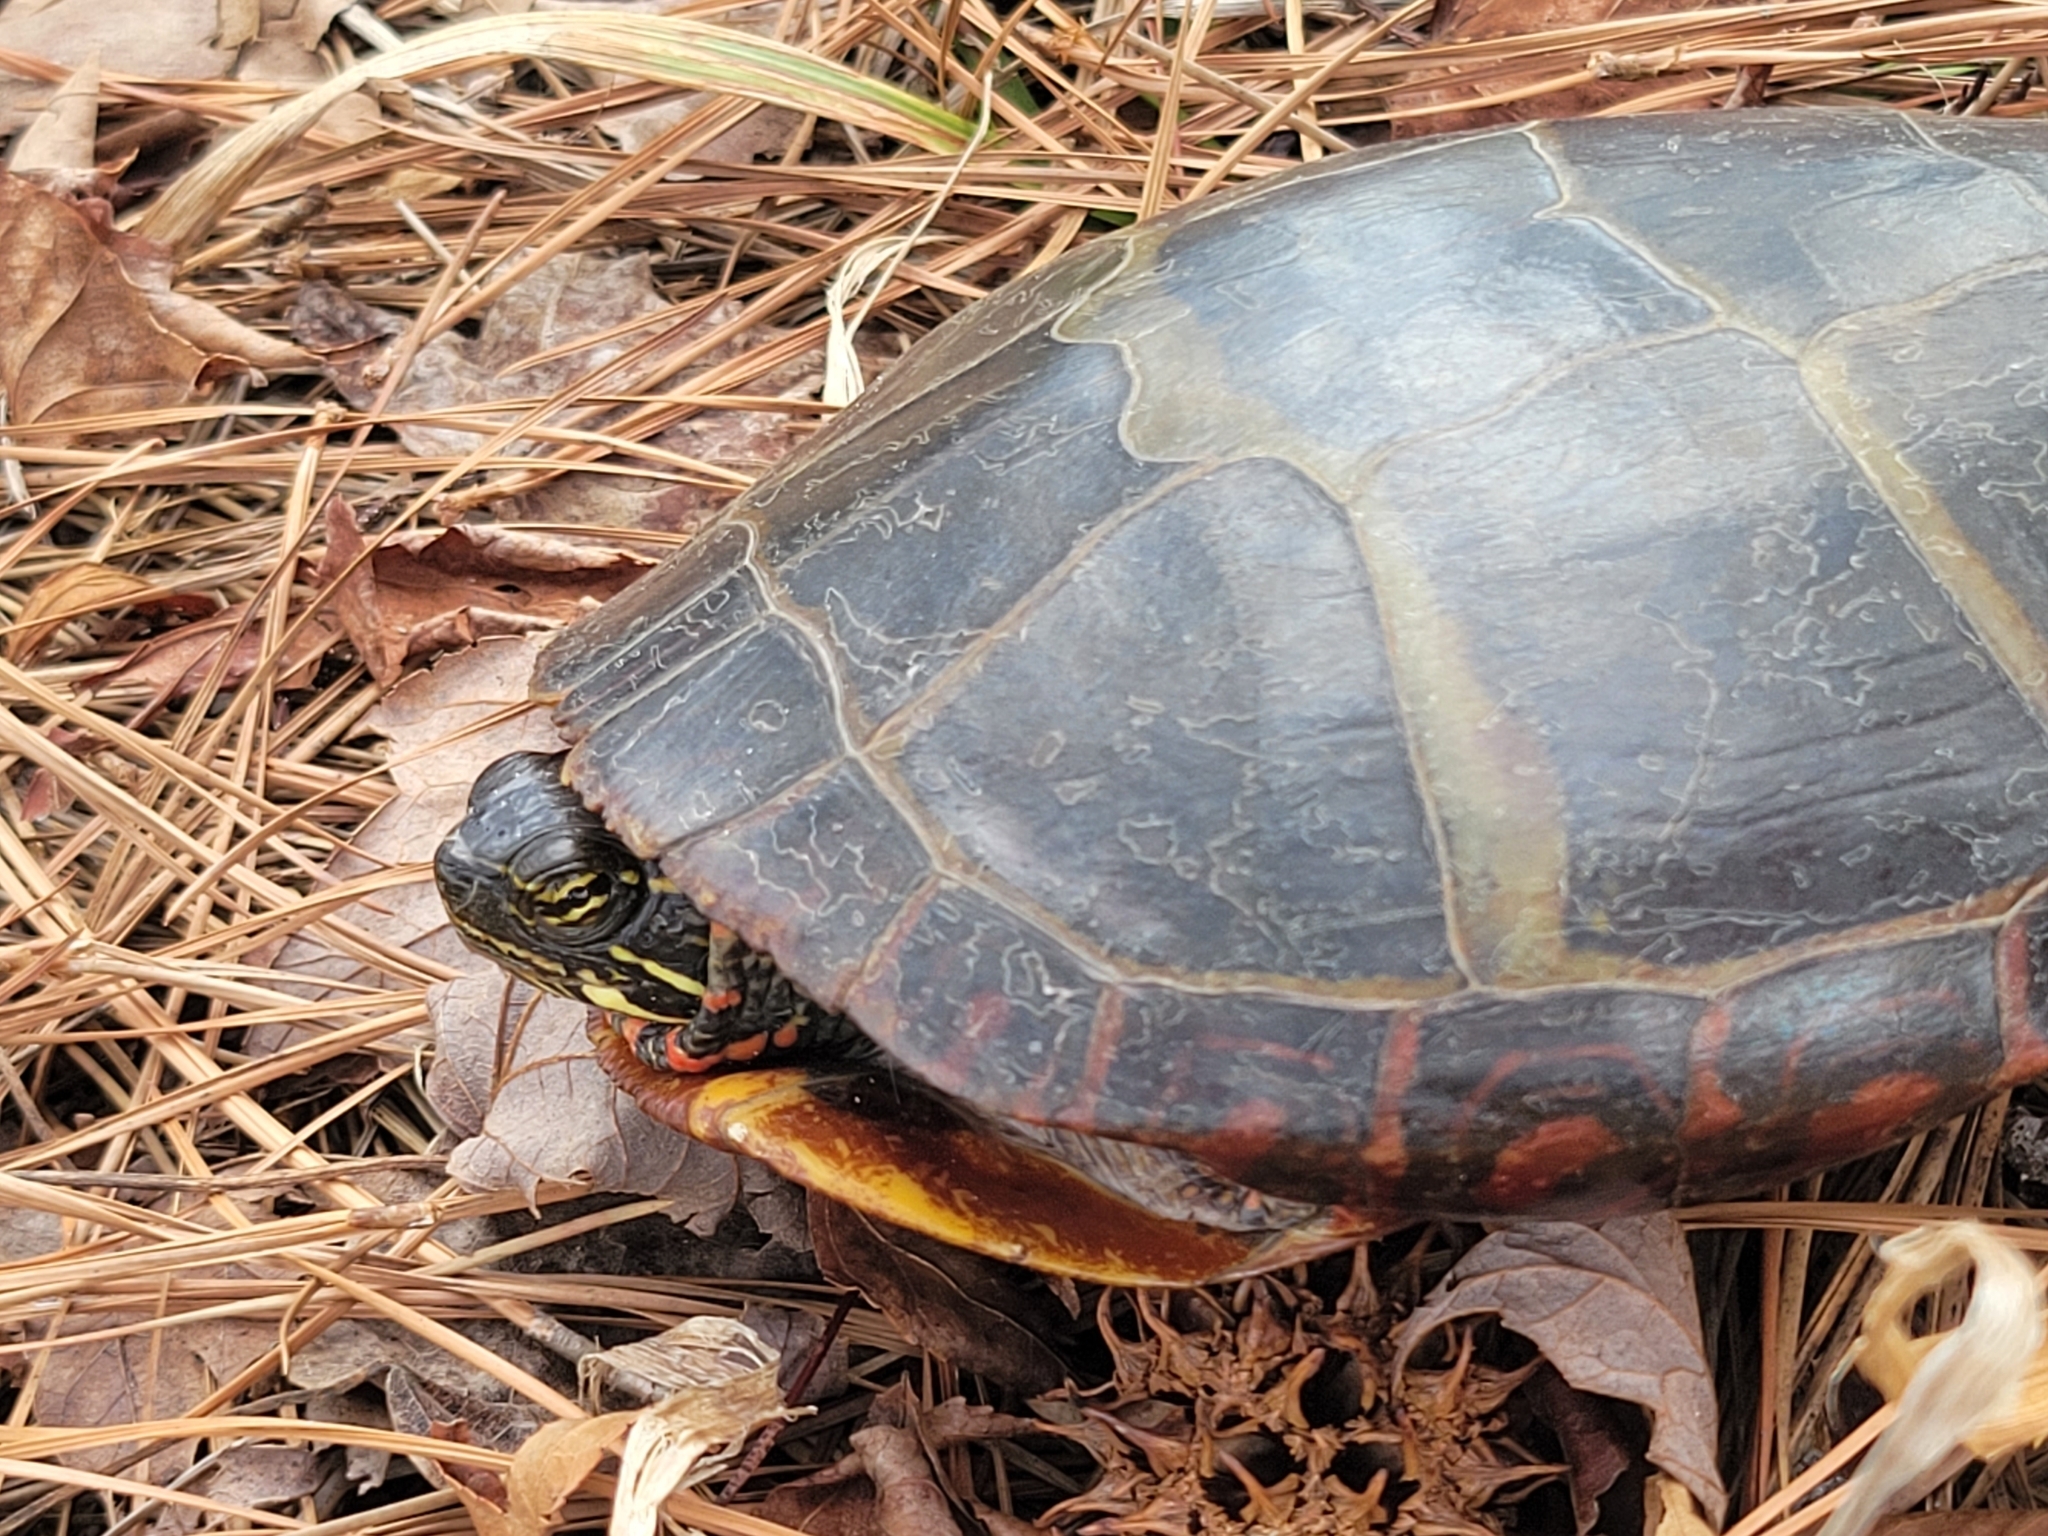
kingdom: Animalia
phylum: Chordata
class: Testudines
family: Emydidae
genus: Chrysemys
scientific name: Chrysemys picta
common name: Painted turtle
